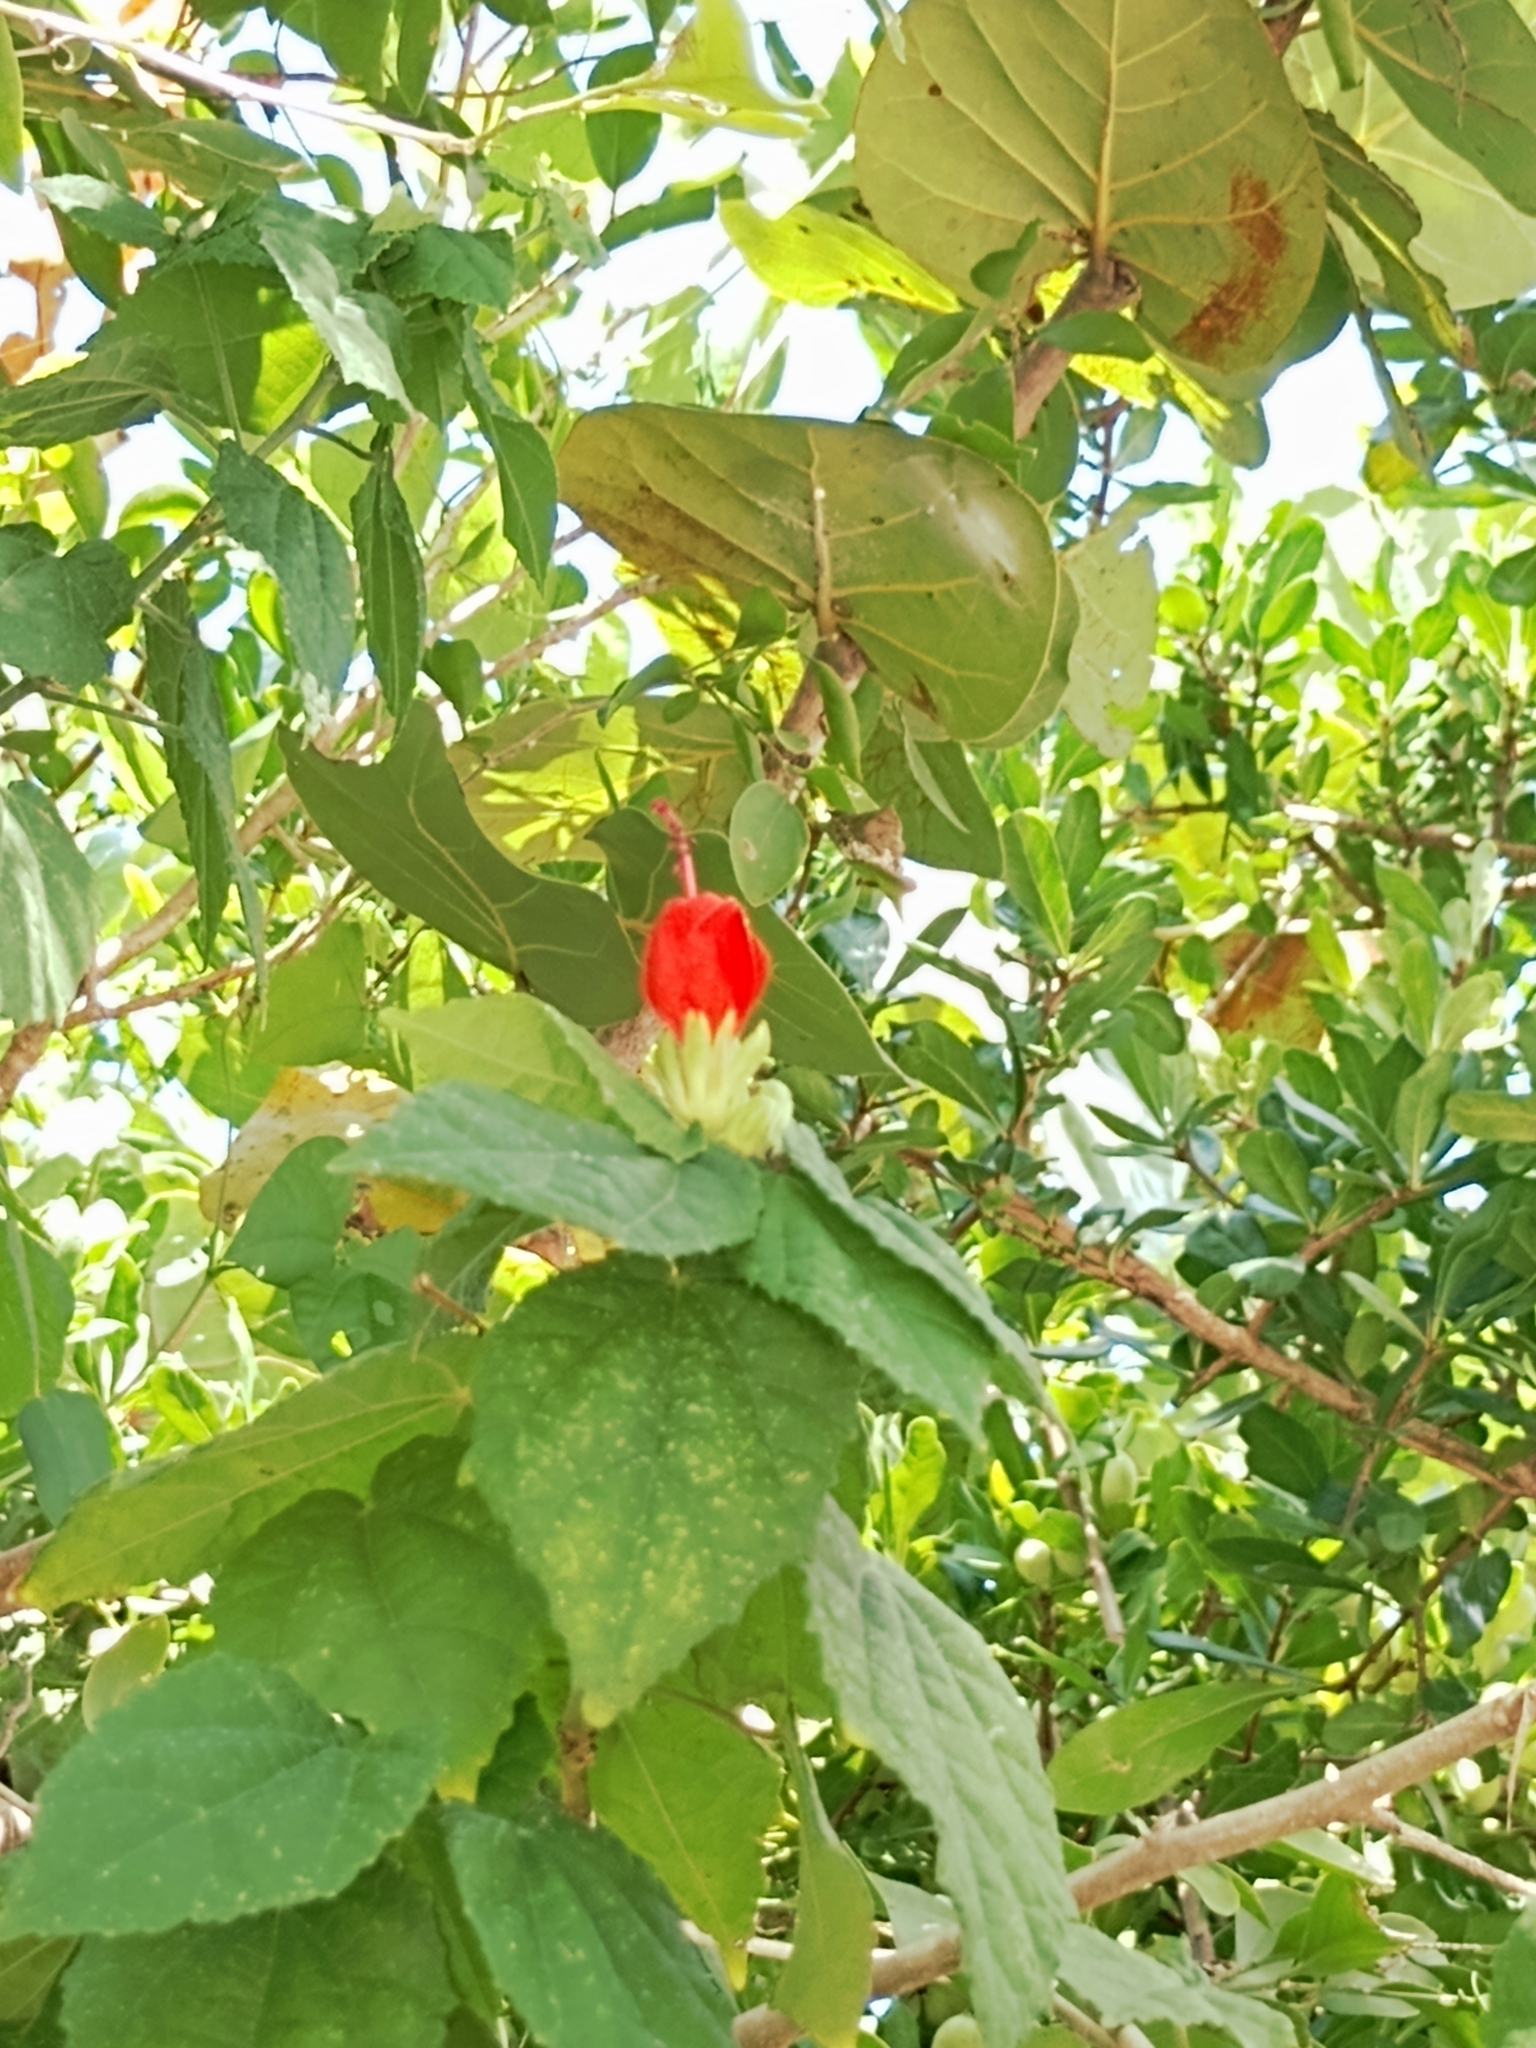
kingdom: Plantae
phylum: Tracheophyta
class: Magnoliopsida
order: Malvales
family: Malvaceae
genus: Malvaviscus
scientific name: Malvaviscus arboreus
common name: Wax mallow
